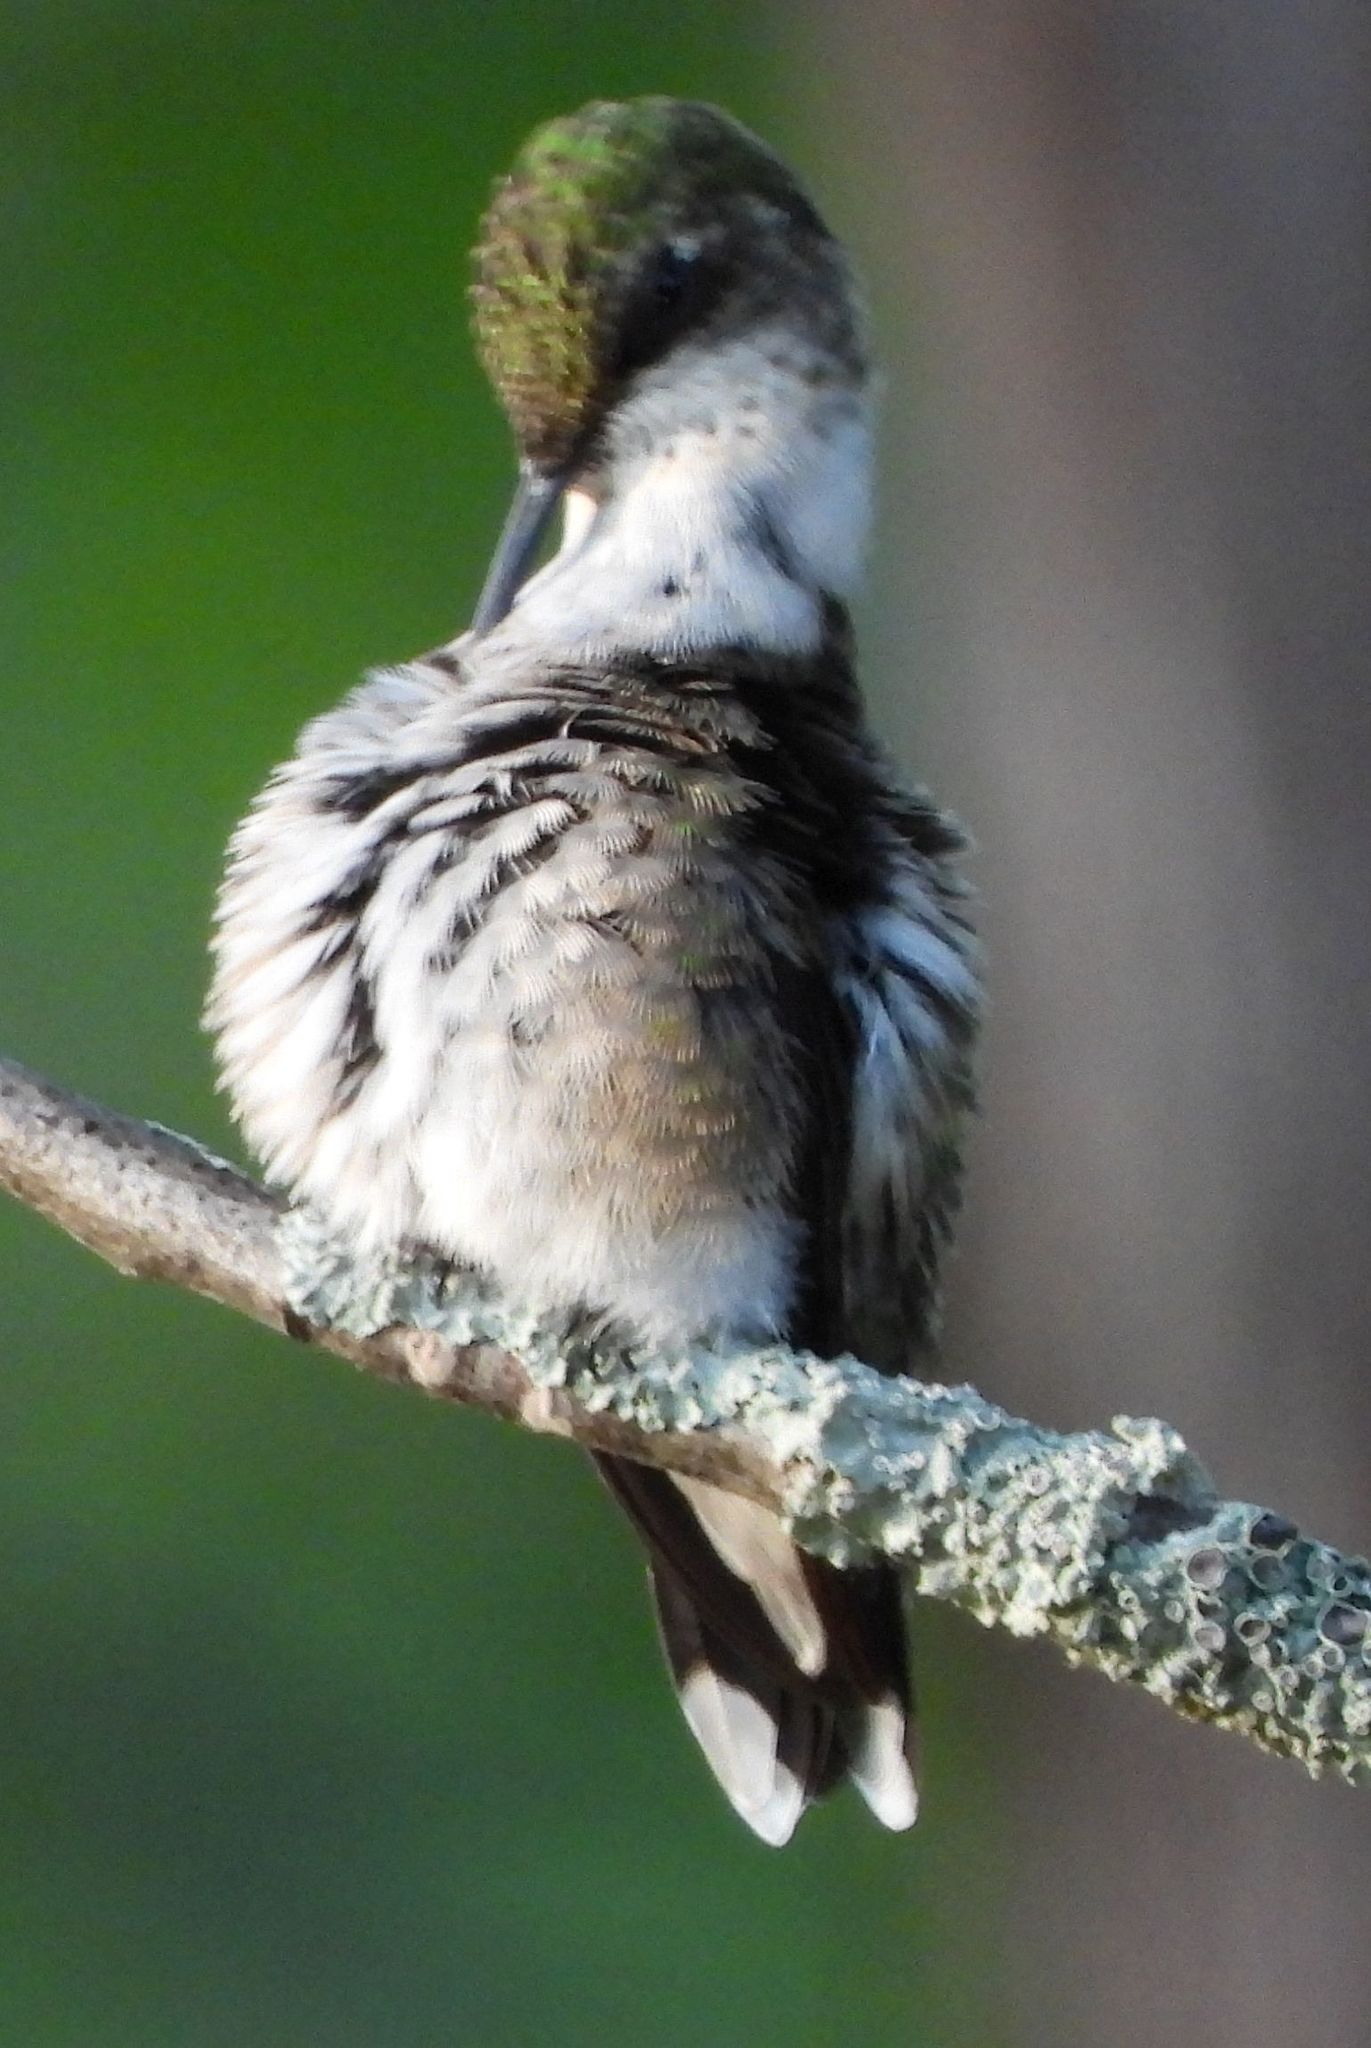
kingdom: Animalia
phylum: Chordata
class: Aves
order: Apodiformes
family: Trochilidae
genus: Archilochus
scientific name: Archilochus colubris
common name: Ruby-throated hummingbird
